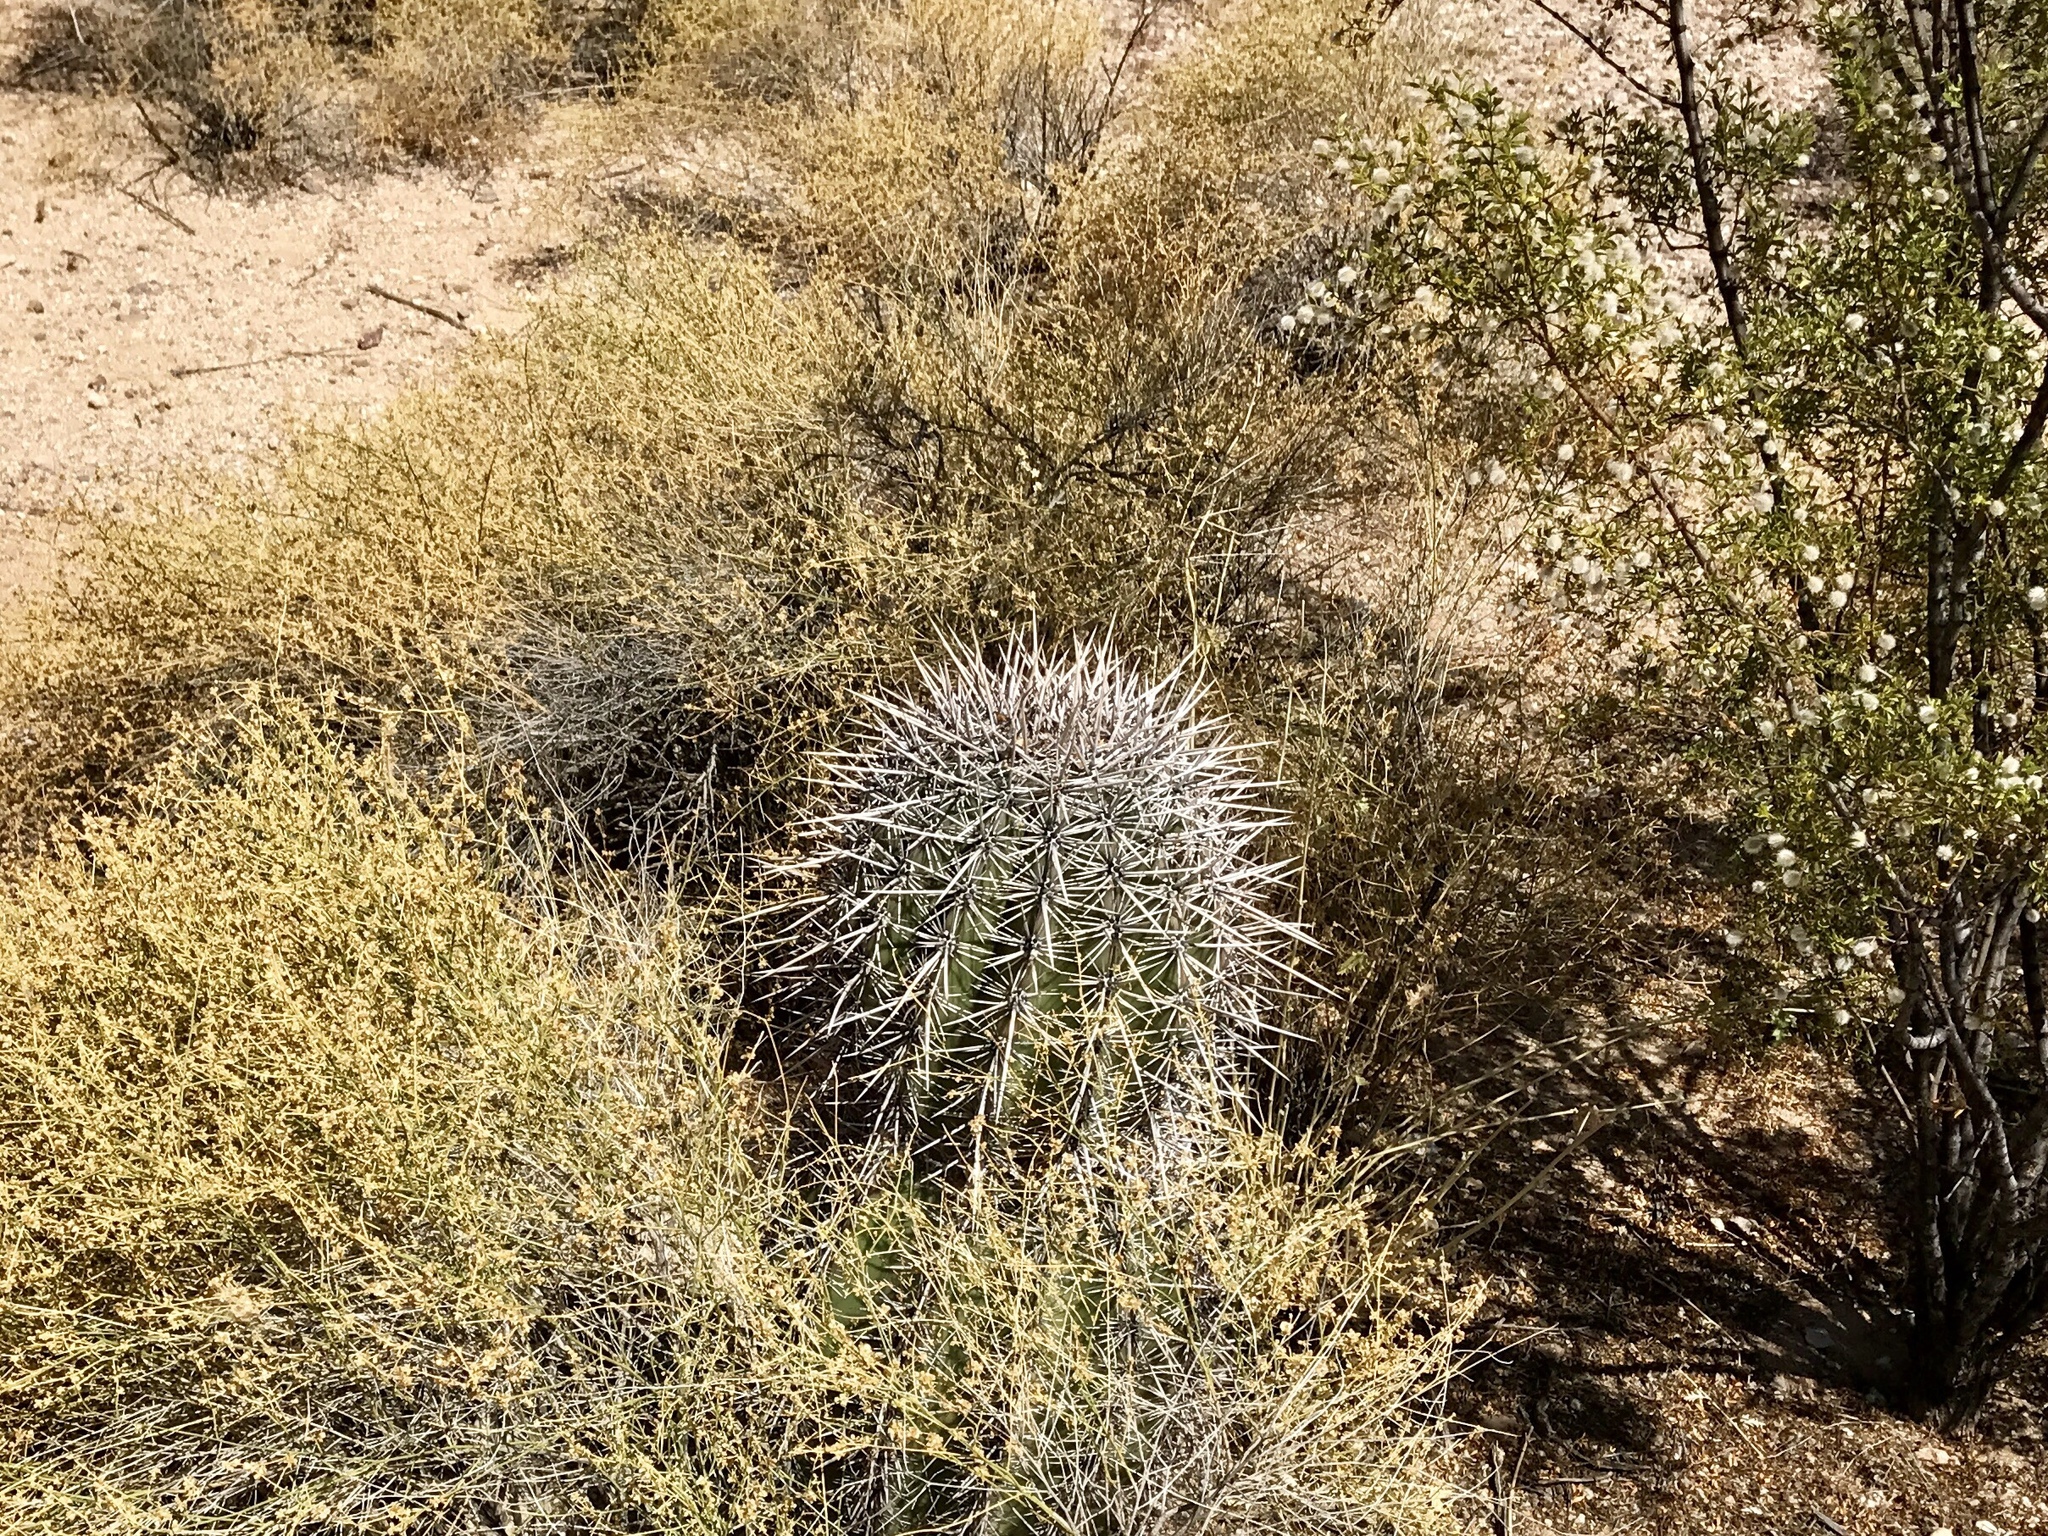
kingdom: Plantae
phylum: Tracheophyta
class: Magnoliopsida
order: Caryophyllales
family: Cactaceae
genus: Ferocactus
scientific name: Ferocactus wislizeni
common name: Candy barrel cactus
